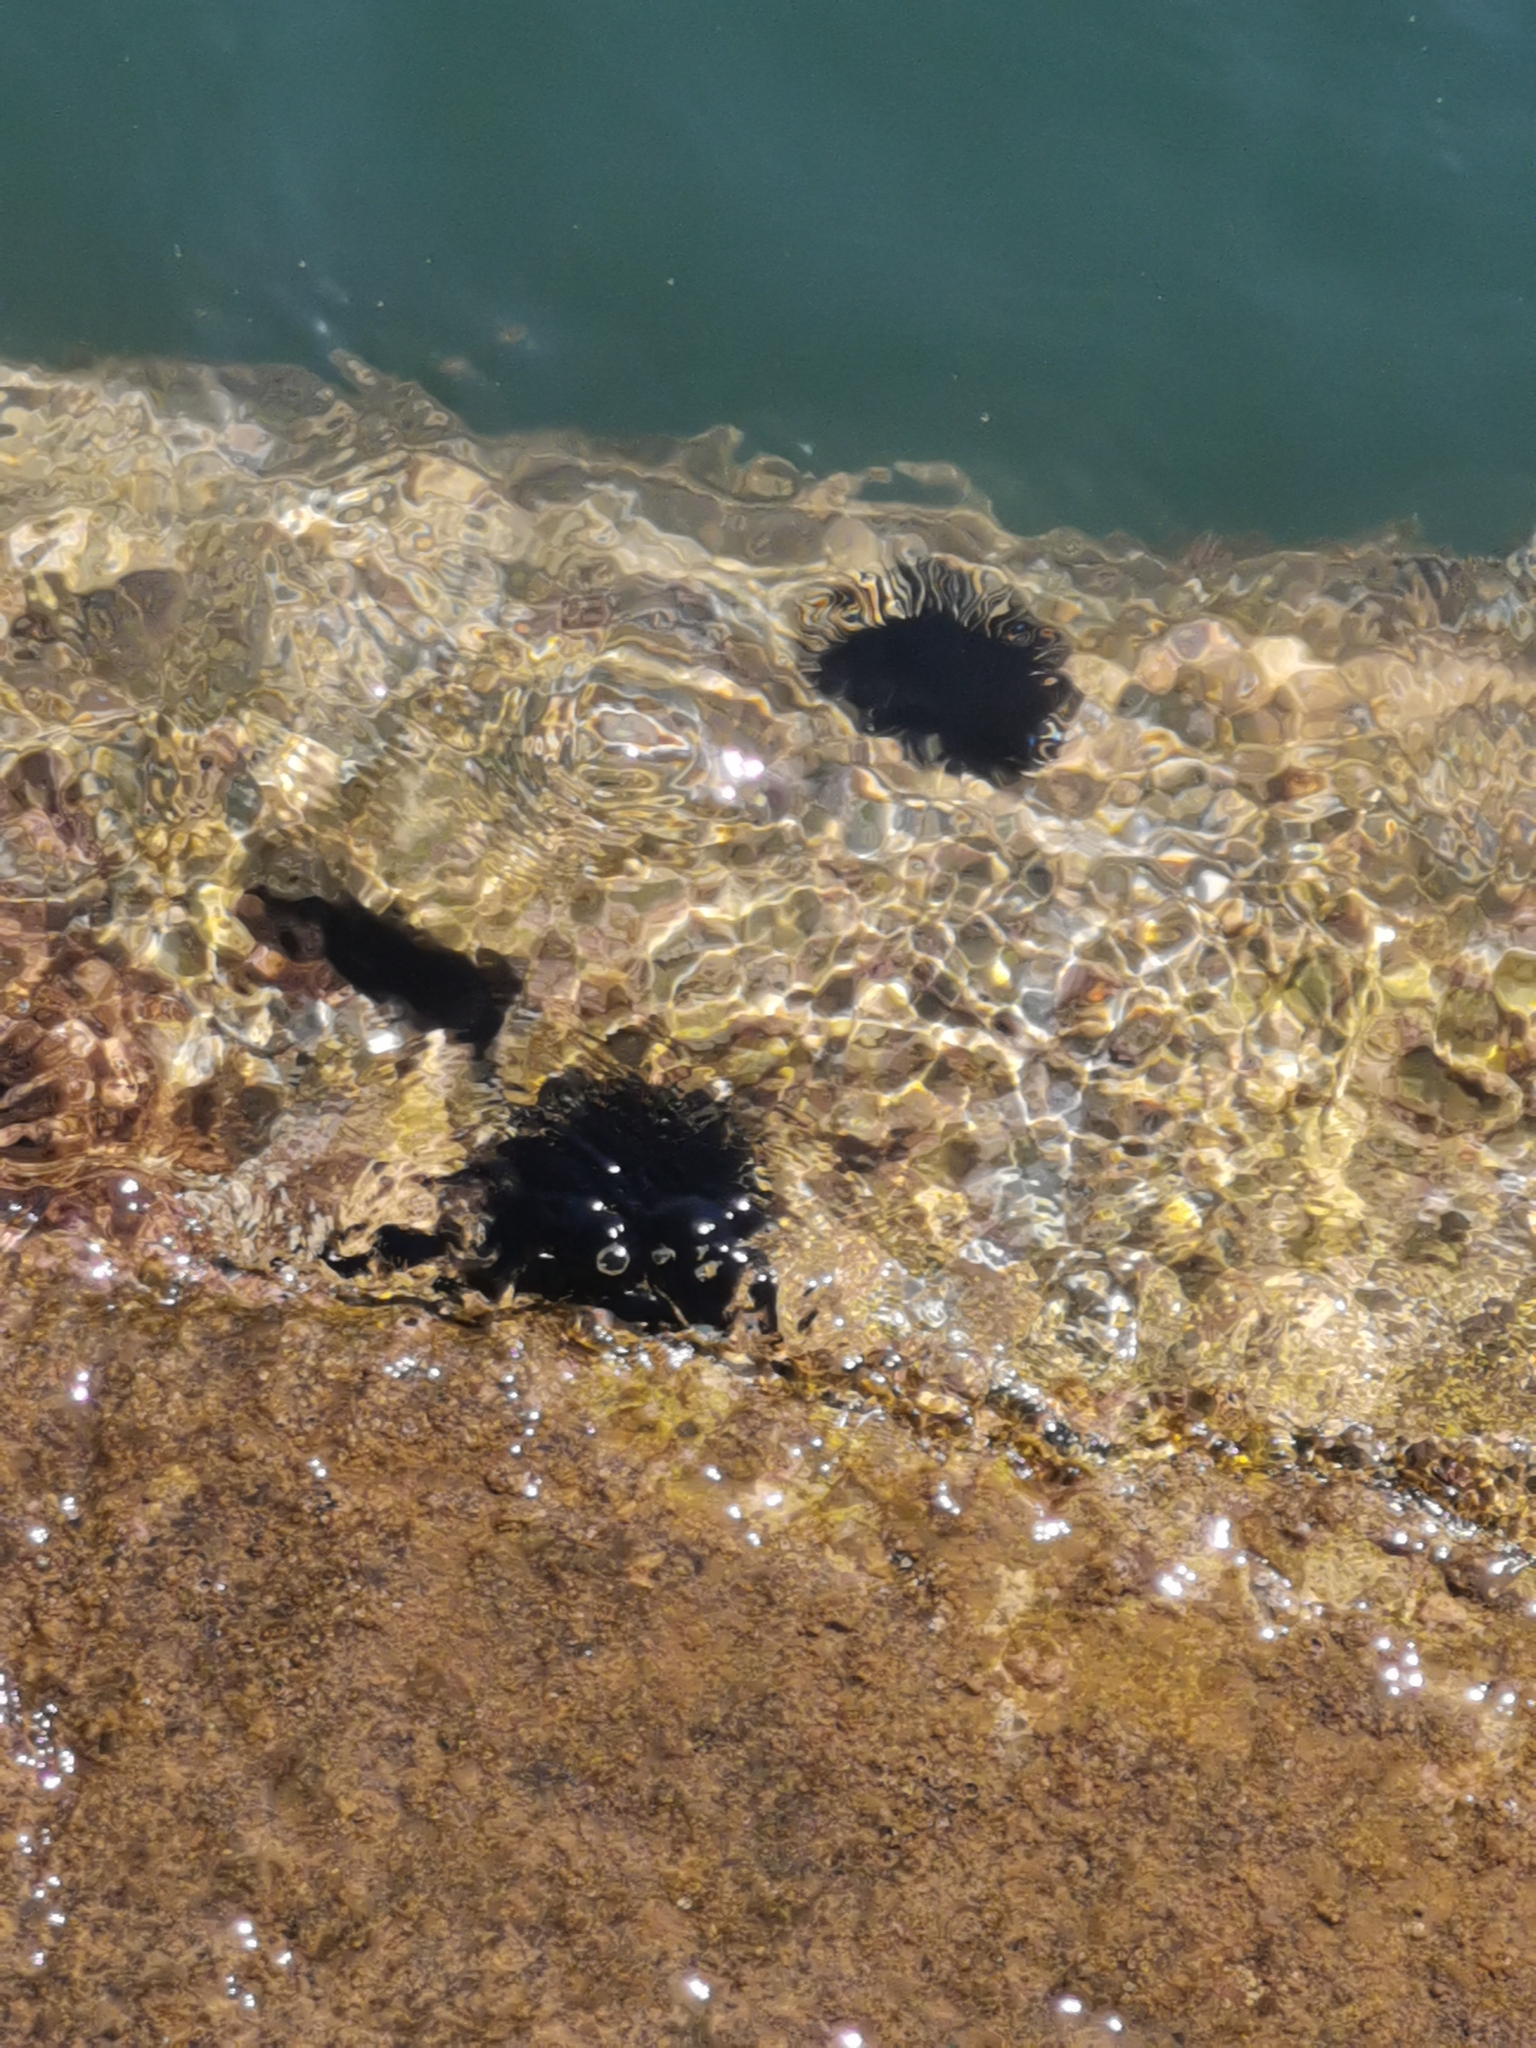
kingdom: Animalia
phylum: Echinodermata
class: Echinoidea
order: Arbacioida
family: Arbaciidae
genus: Arbacia
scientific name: Arbacia lixula
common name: Black sea urchin
